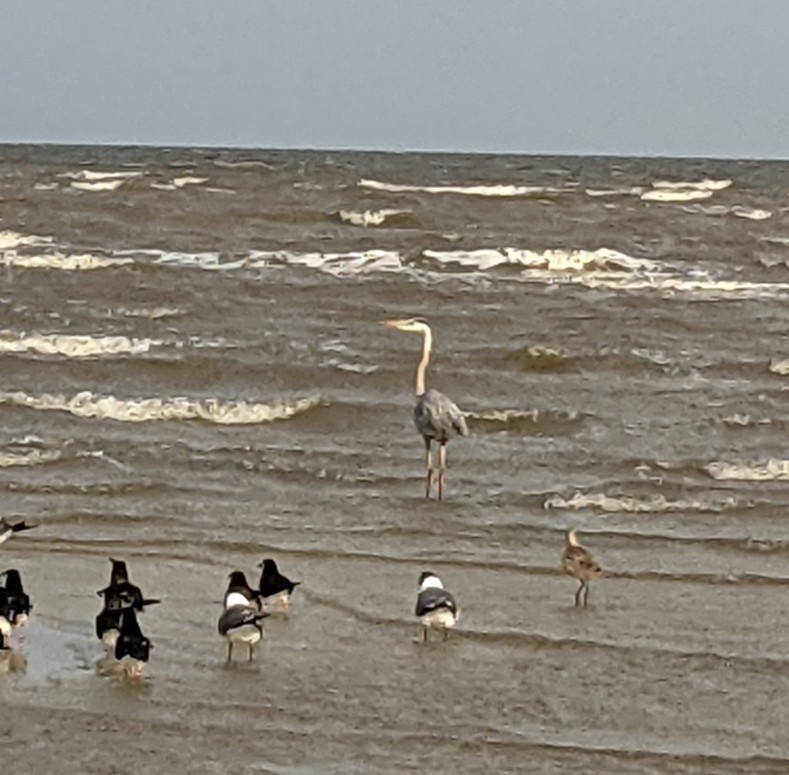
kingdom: Animalia
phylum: Chordata
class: Aves
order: Pelecaniformes
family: Ardeidae
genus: Ardea
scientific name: Ardea herodias
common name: Great blue heron
